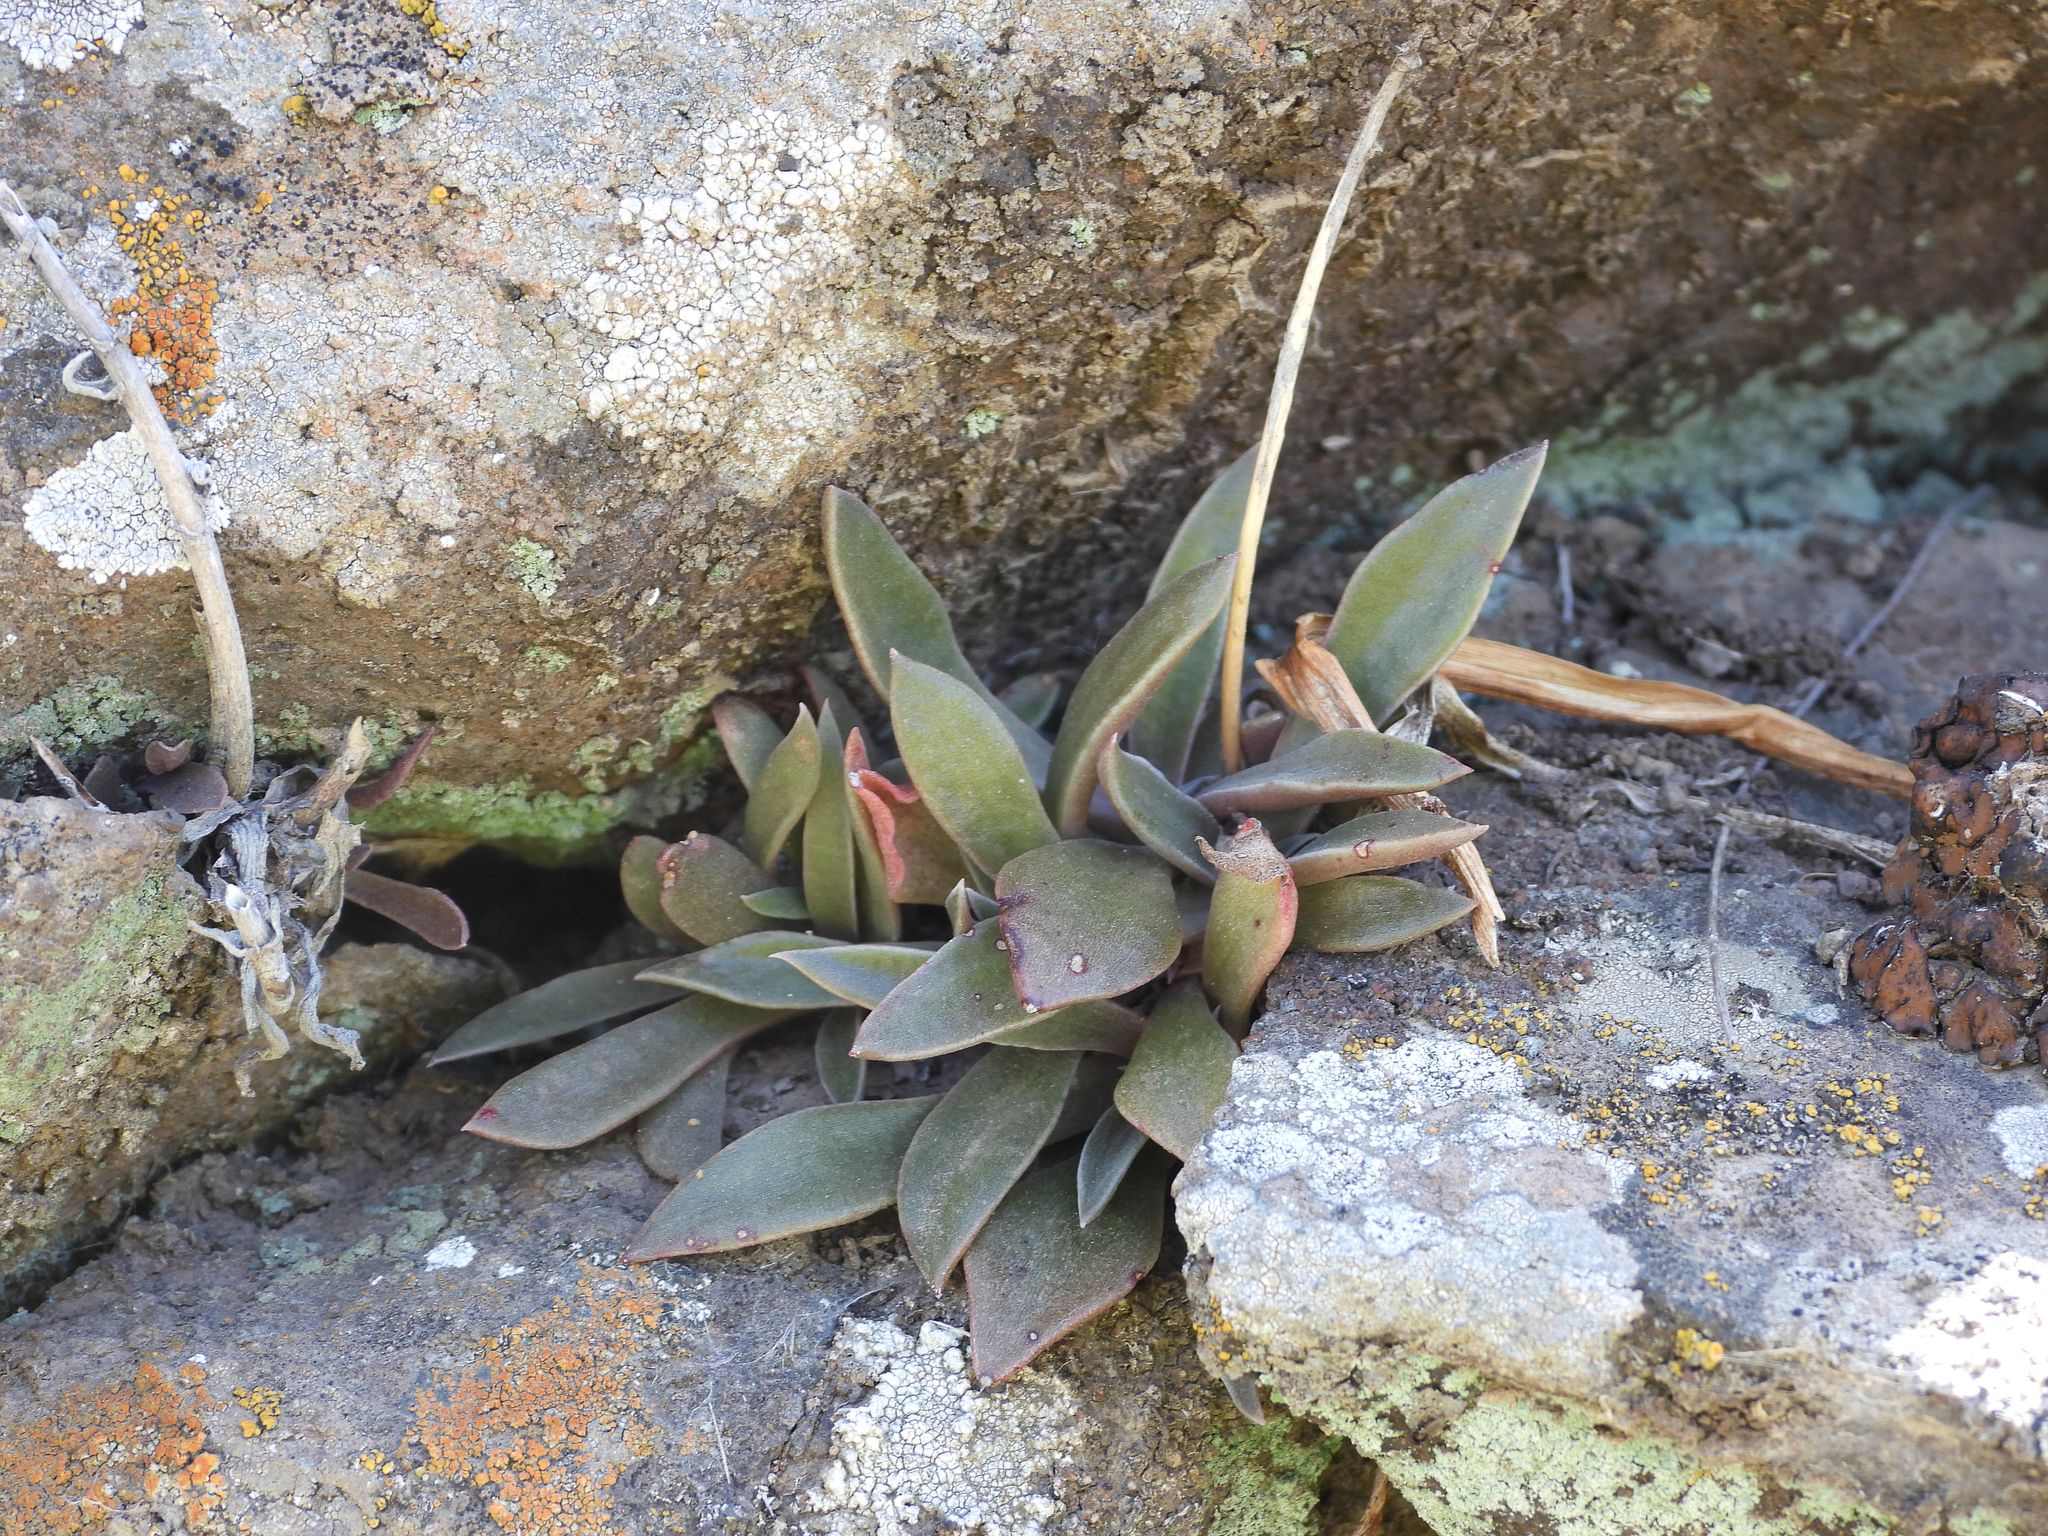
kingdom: Plantae
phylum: Tracheophyta
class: Magnoliopsida
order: Saxifragales
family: Crassulaceae
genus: Dudleya
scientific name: Dudleya parva
